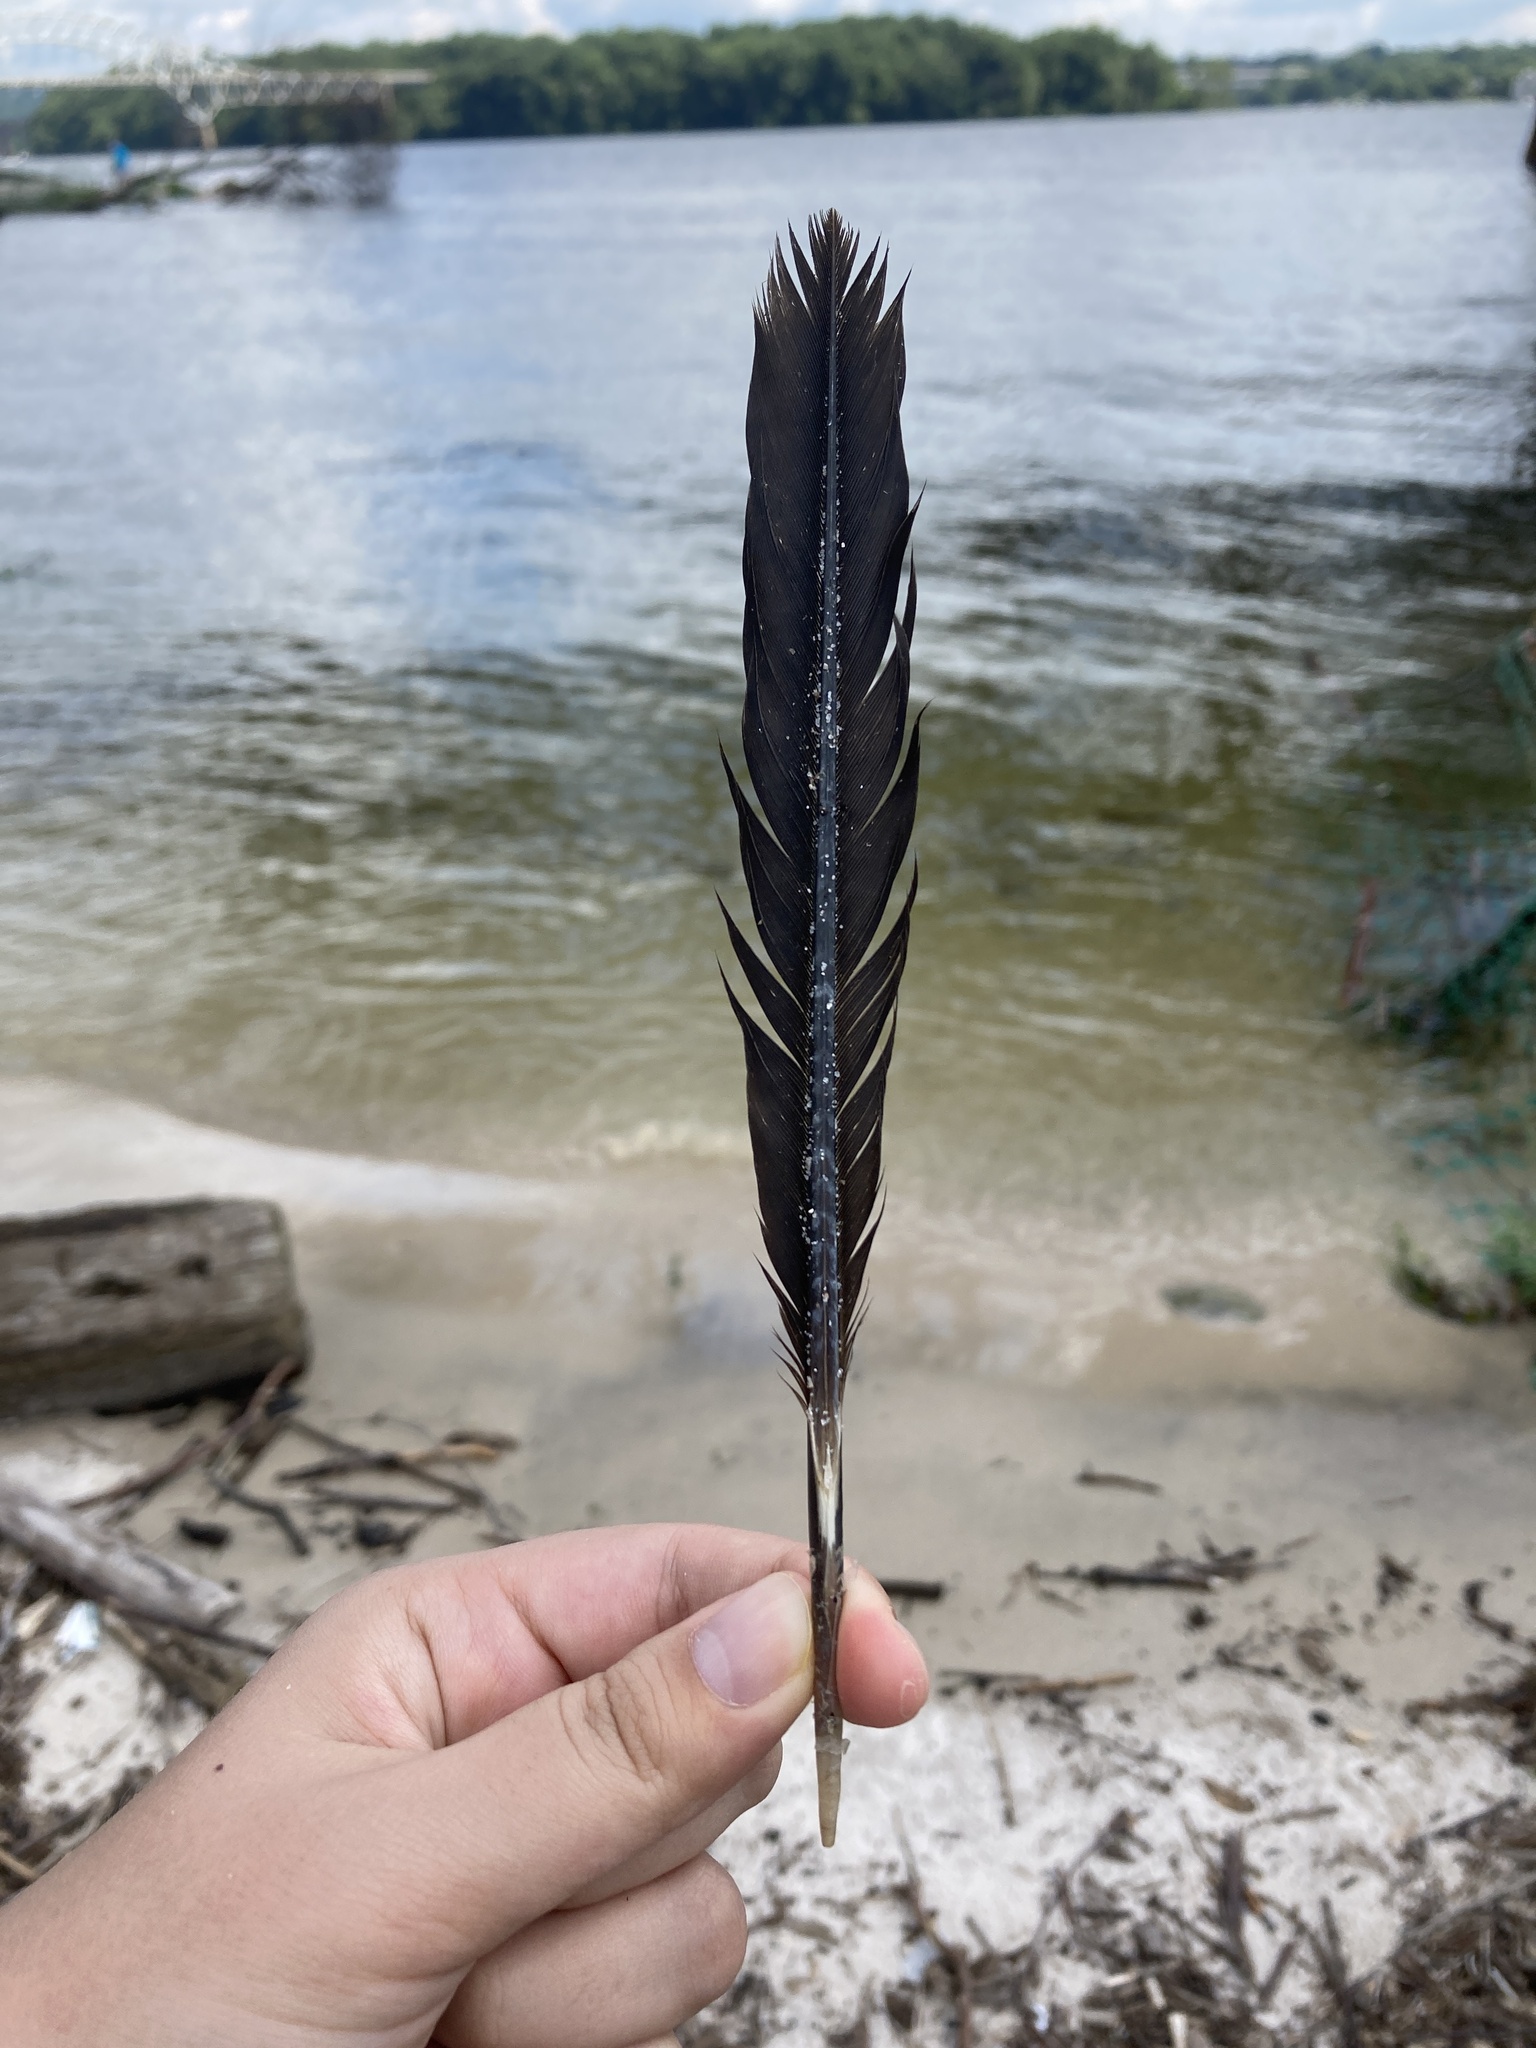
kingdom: Animalia
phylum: Chordata
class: Aves
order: Suliformes
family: Phalacrocoracidae
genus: Phalacrocorax
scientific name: Phalacrocorax auritus
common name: Double-crested cormorant
